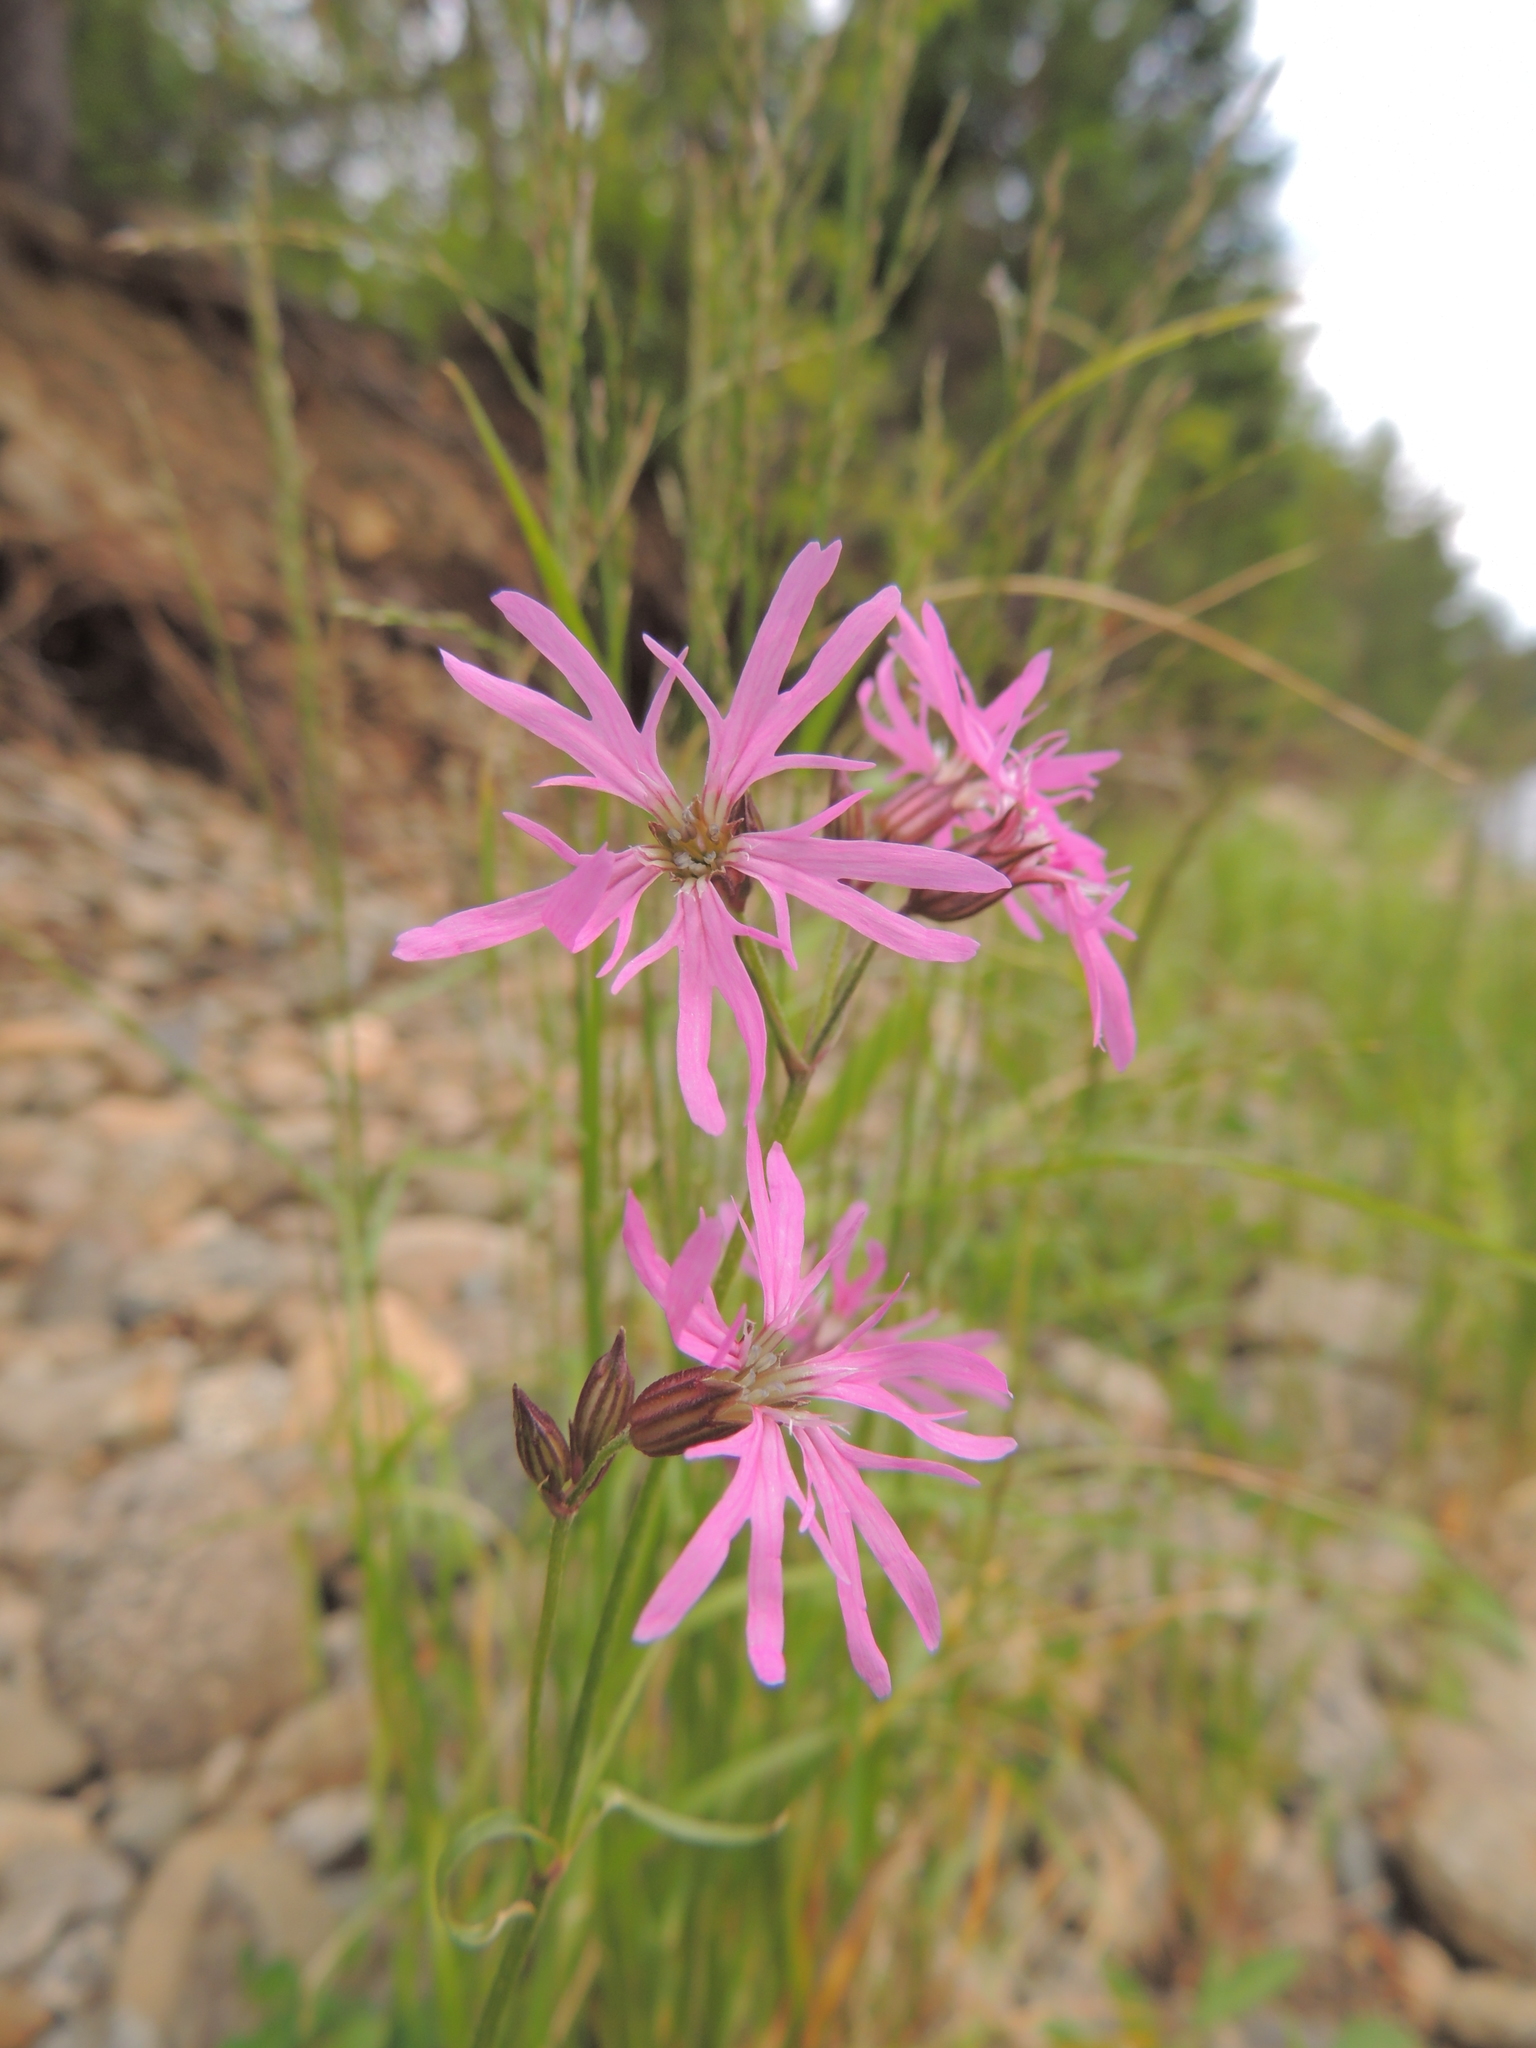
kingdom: Plantae
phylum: Tracheophyta
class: Magnoliopsida
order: Caryophyllales
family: Caryophyllaceae
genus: Silene
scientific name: Silene flos-cuculi
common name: Ragged-robin
